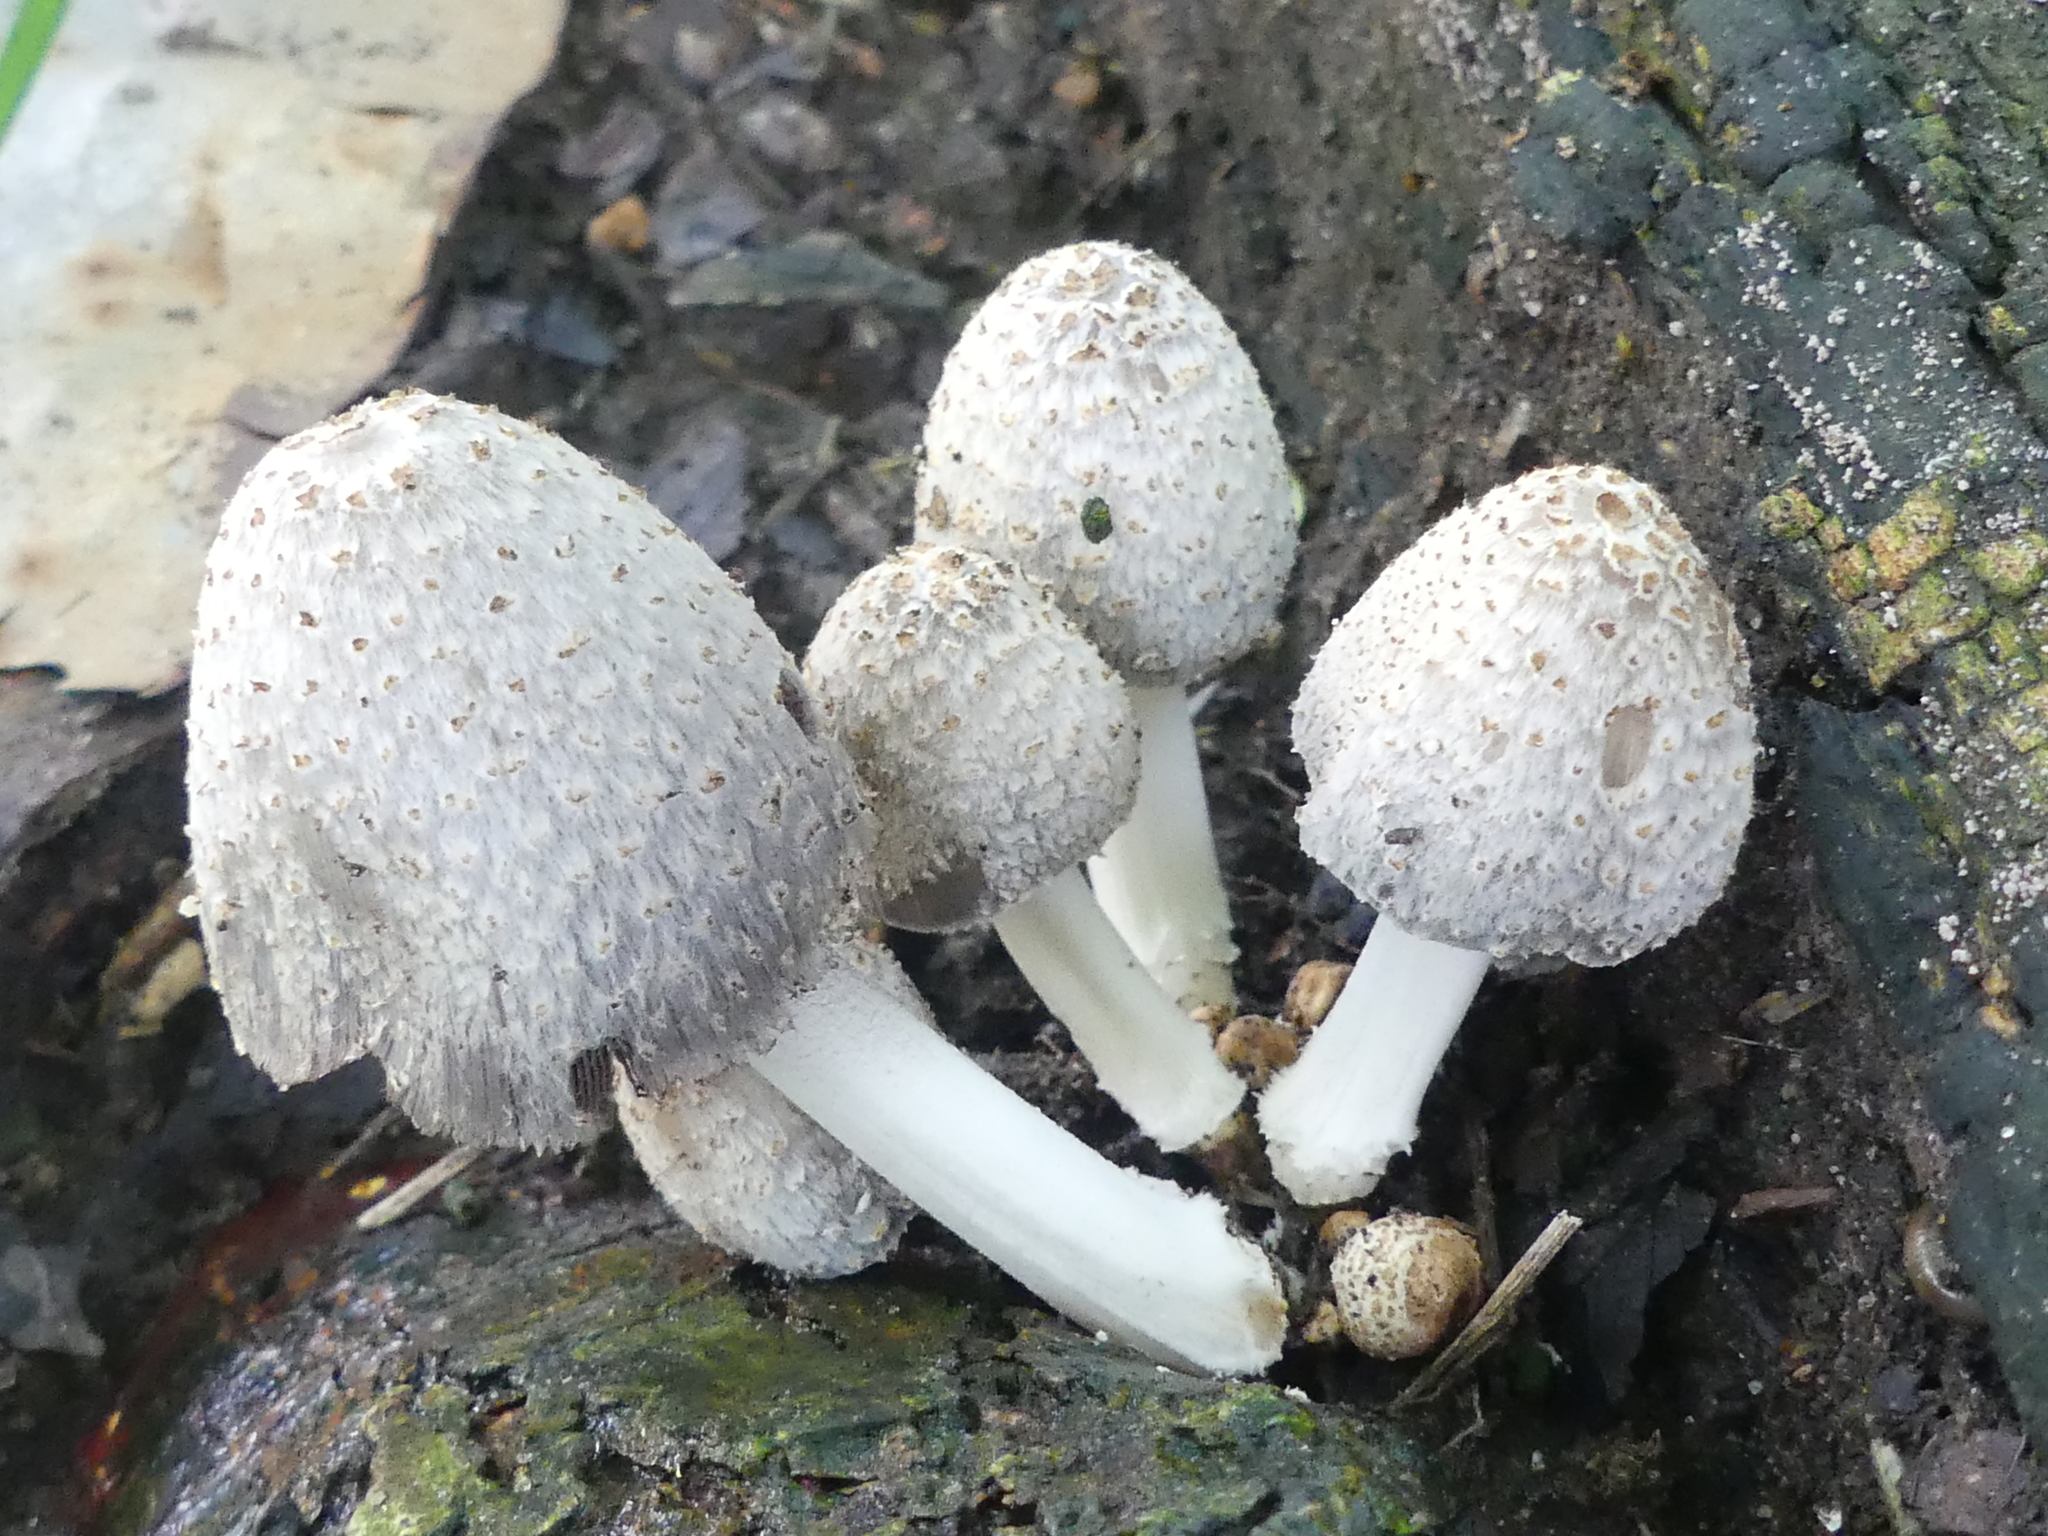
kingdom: Fungi
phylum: Basidiomycota
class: Agaricomycetes
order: Agaricales
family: Psathyrellaceae
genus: Coprinopsis
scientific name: Coprinopsis variegata
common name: Scaly ink cap
